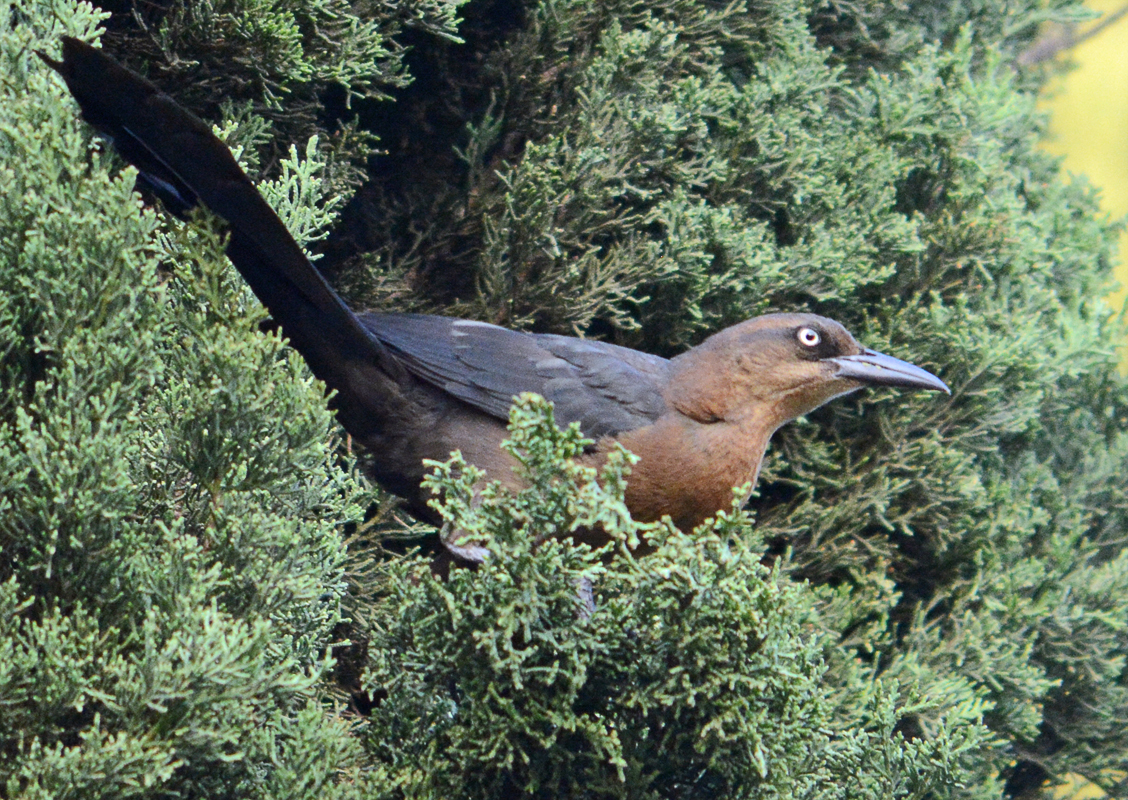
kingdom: Animalia
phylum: Chordata
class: Aves
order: Passeriformes
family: Icteridae
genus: Quiscalus
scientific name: Quiscalus mexicanus
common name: Great-tailed grackle
